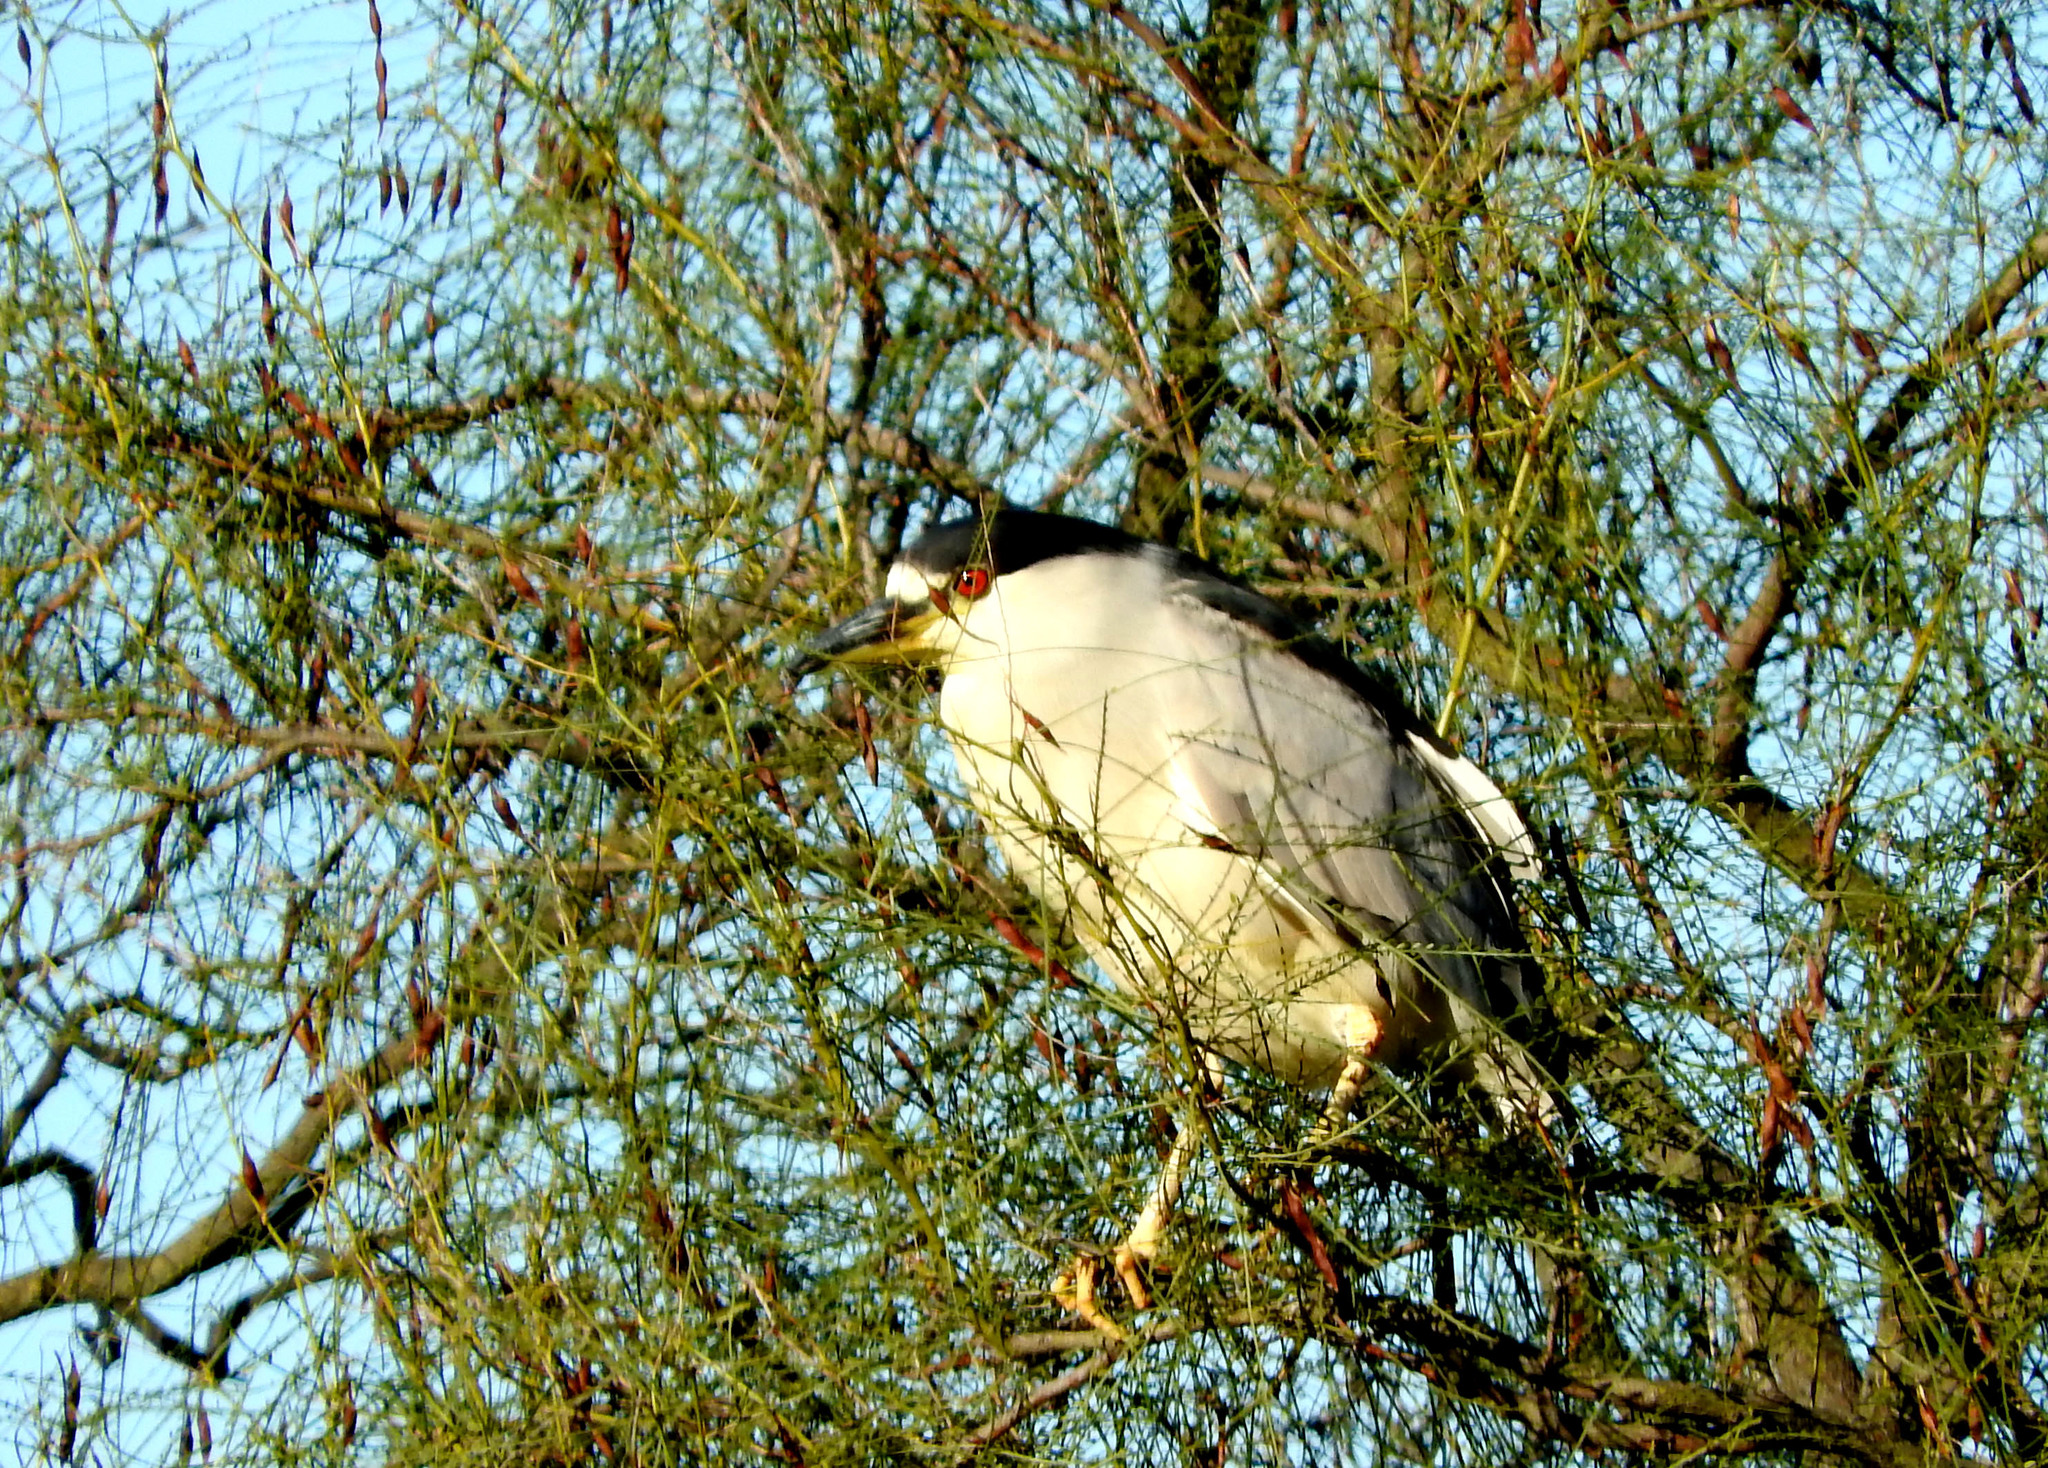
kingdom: Animalia
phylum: Chordata
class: Aves
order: Pelecaniformes
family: Ardeidae
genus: Nycticorax
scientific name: Nycticorax nycticorax
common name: Black-crowned night heron
